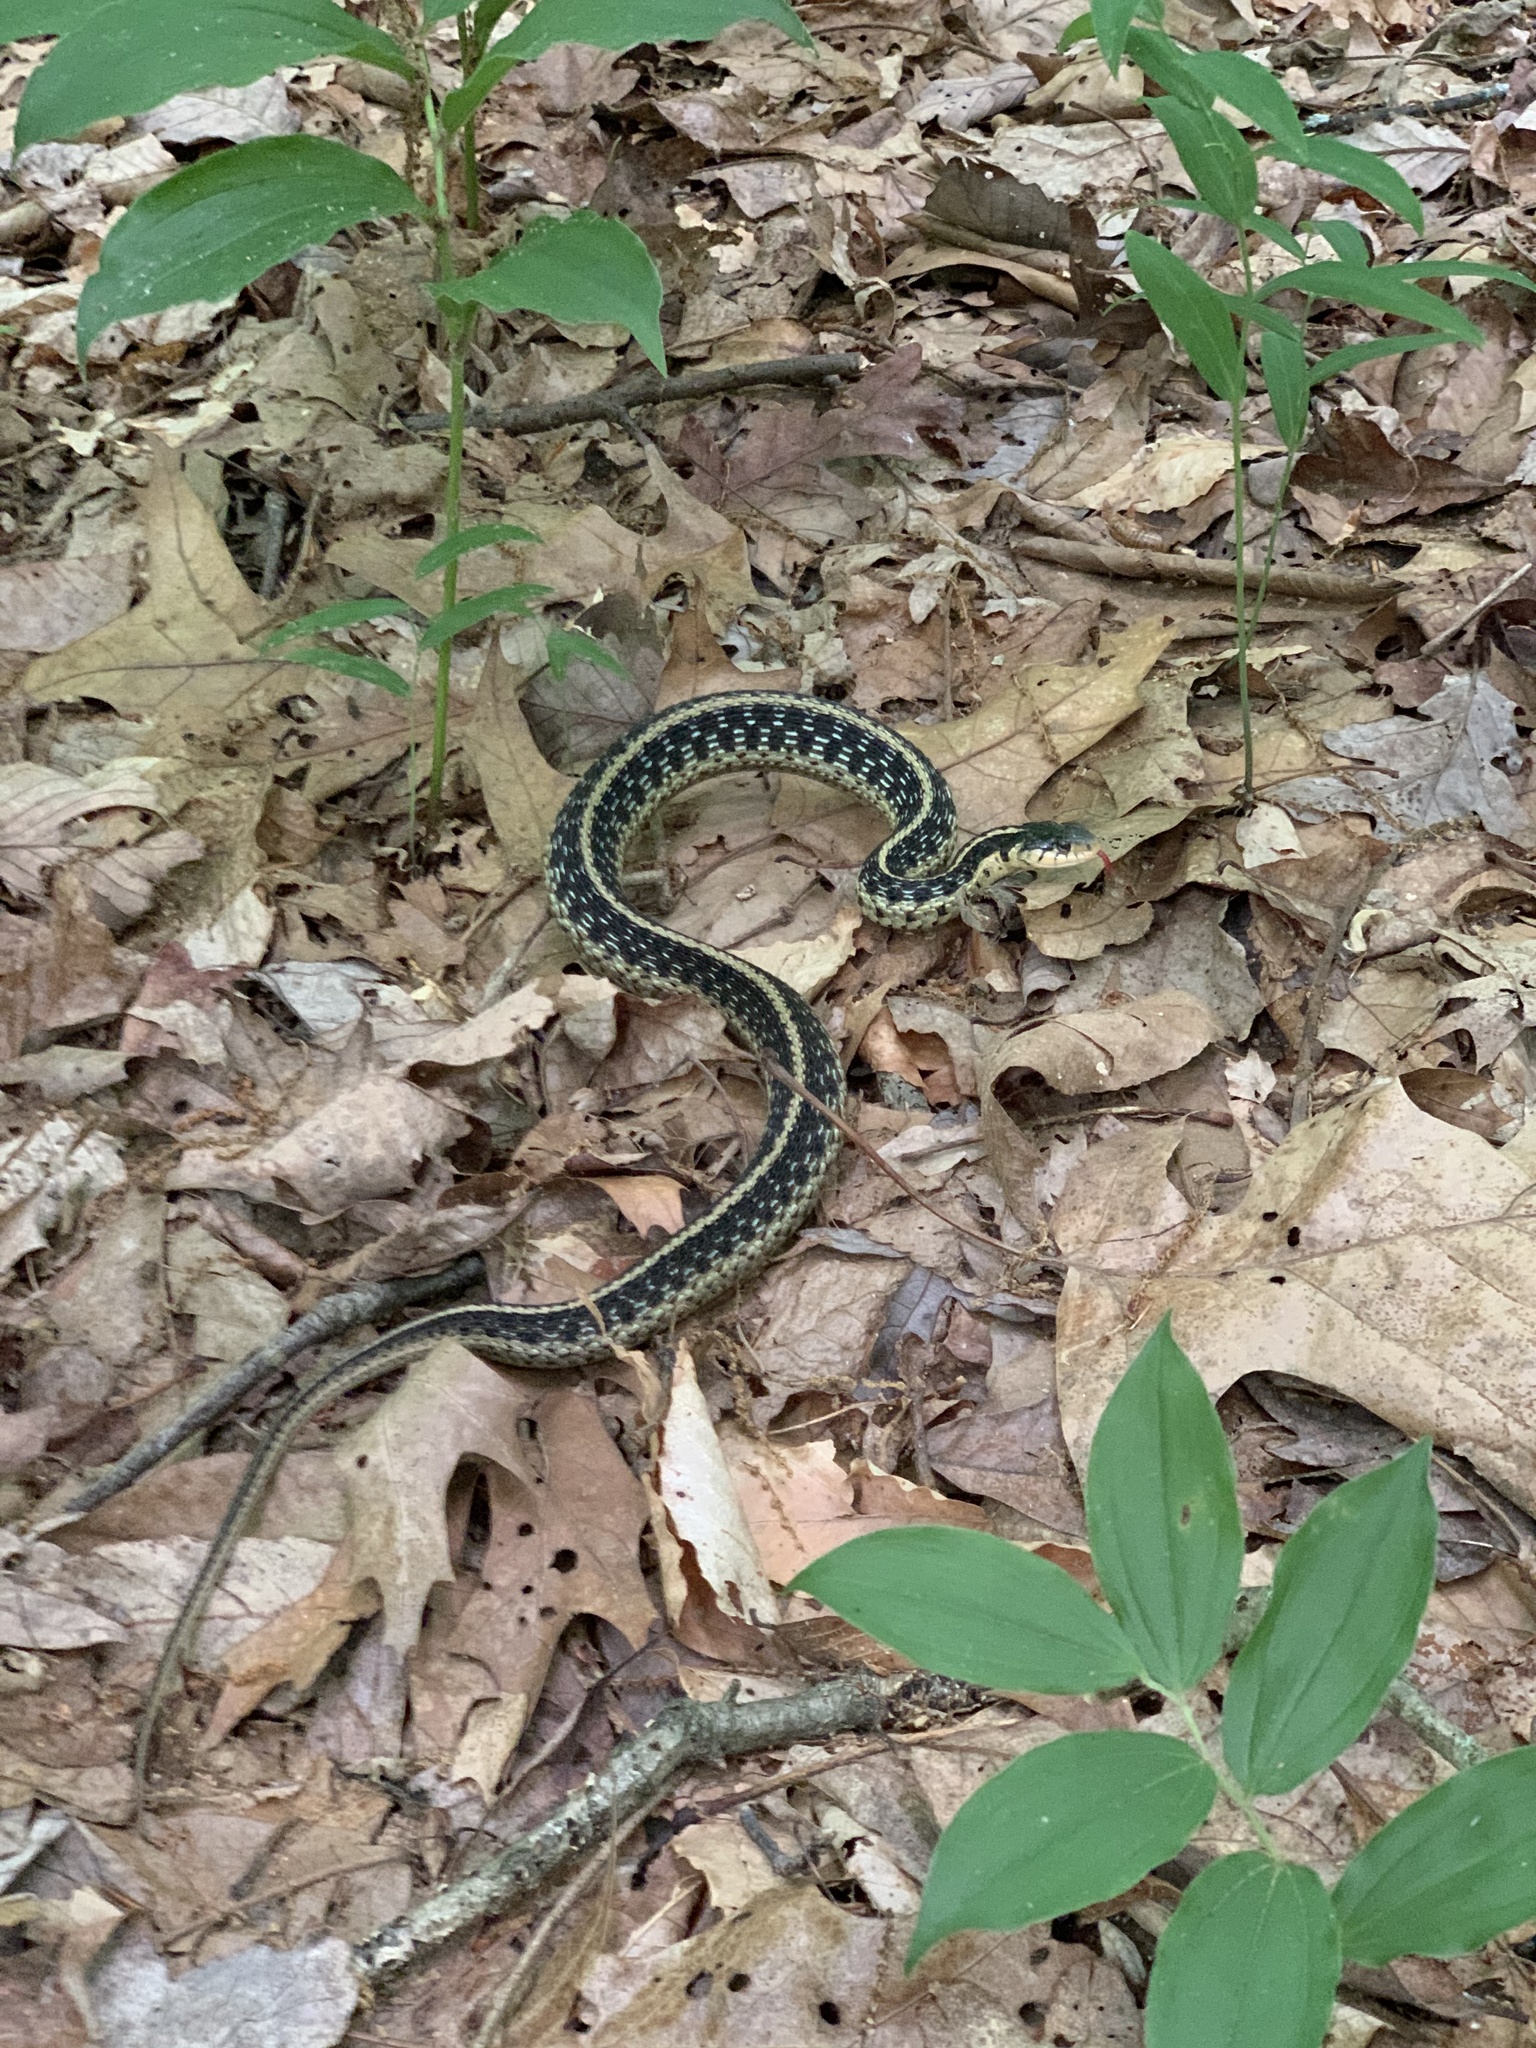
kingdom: Animalia
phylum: Chordata
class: Squamata
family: Colubridae
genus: Thamnophis
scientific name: Thamnophis sirtalis
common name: Common garter snake
